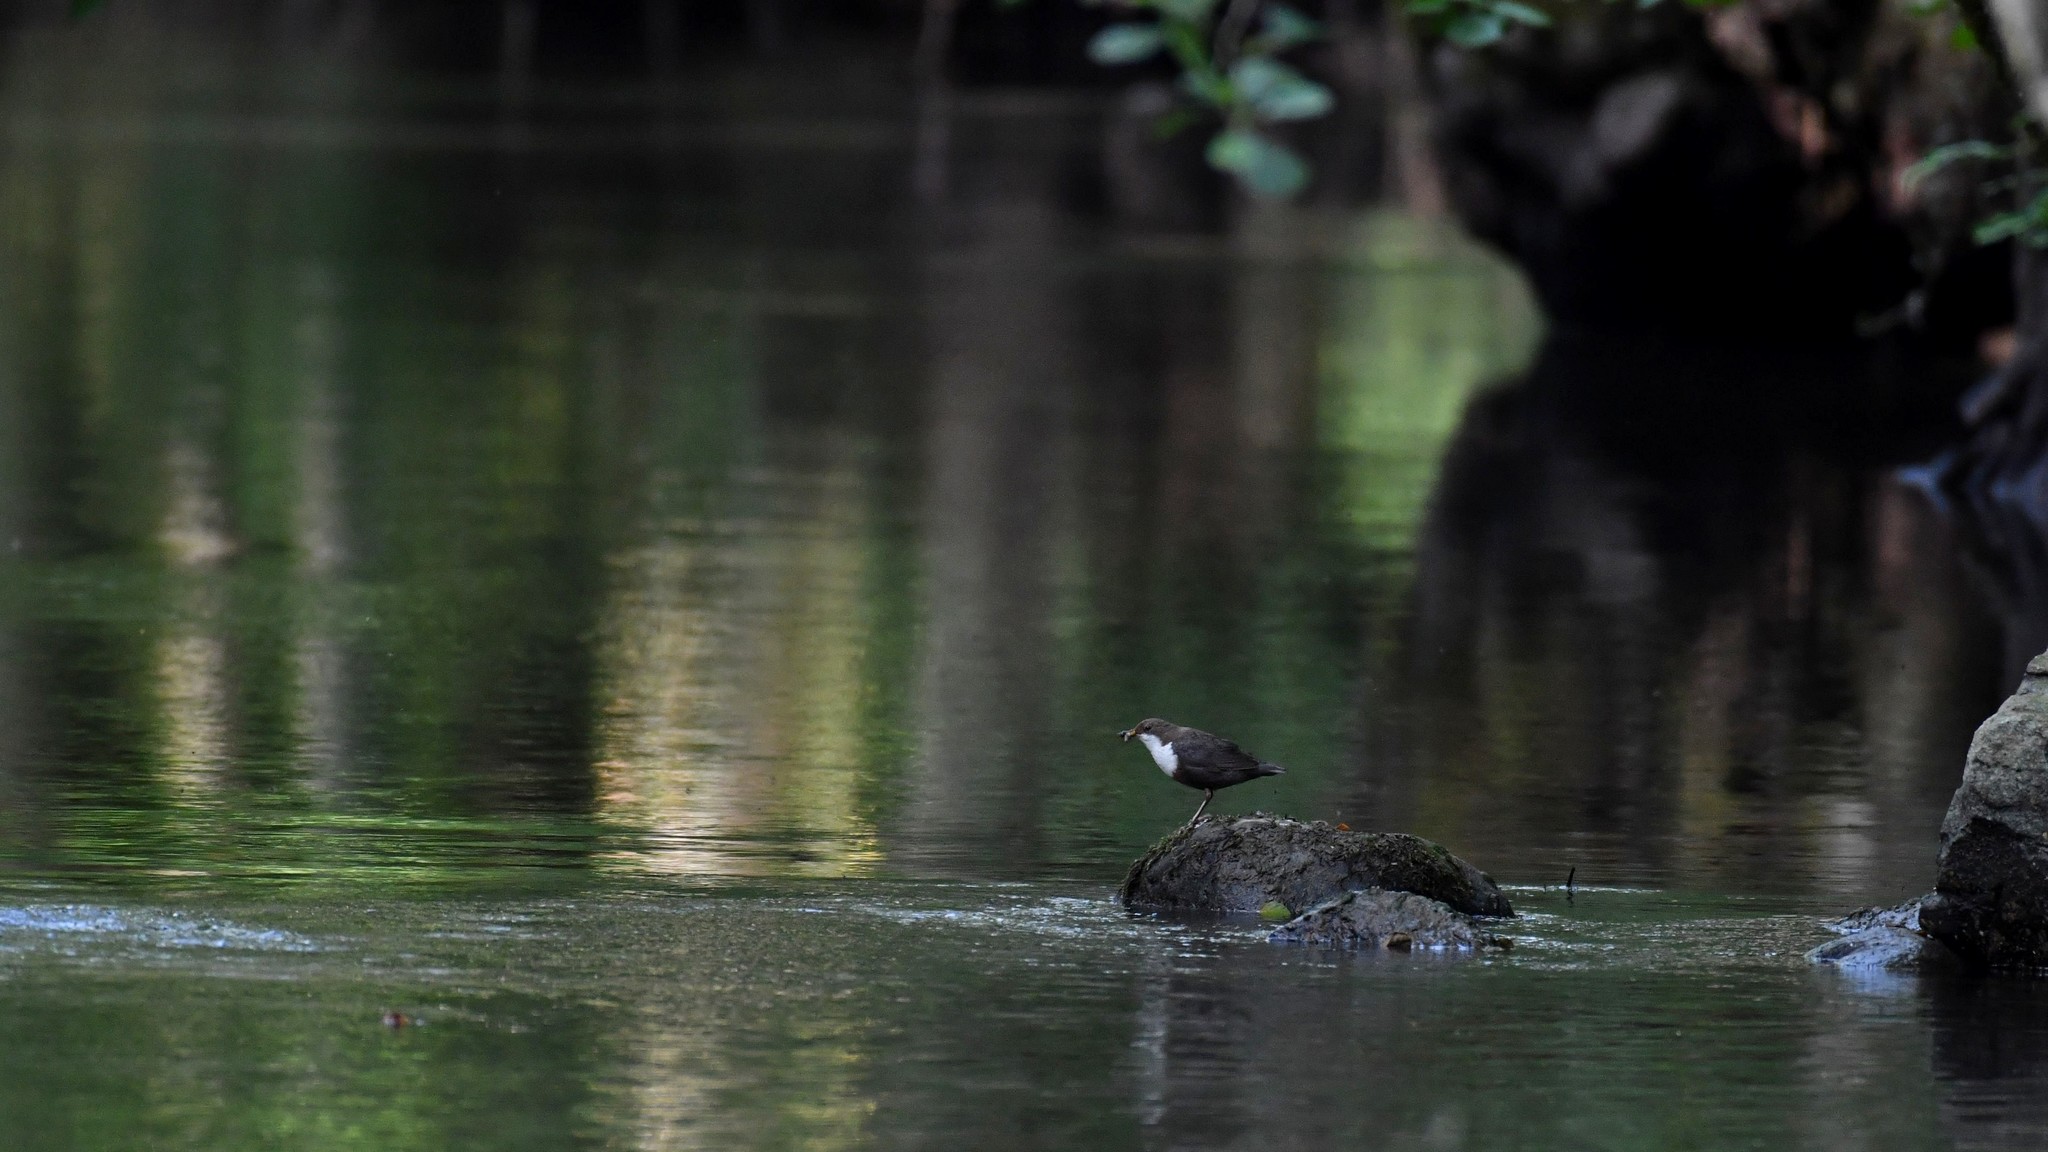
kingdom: Animalia
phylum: Chordata
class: Aves
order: Passeriformes
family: Cinclidae
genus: Cinclus
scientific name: Cinclus cinclus
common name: White-throated dipper
